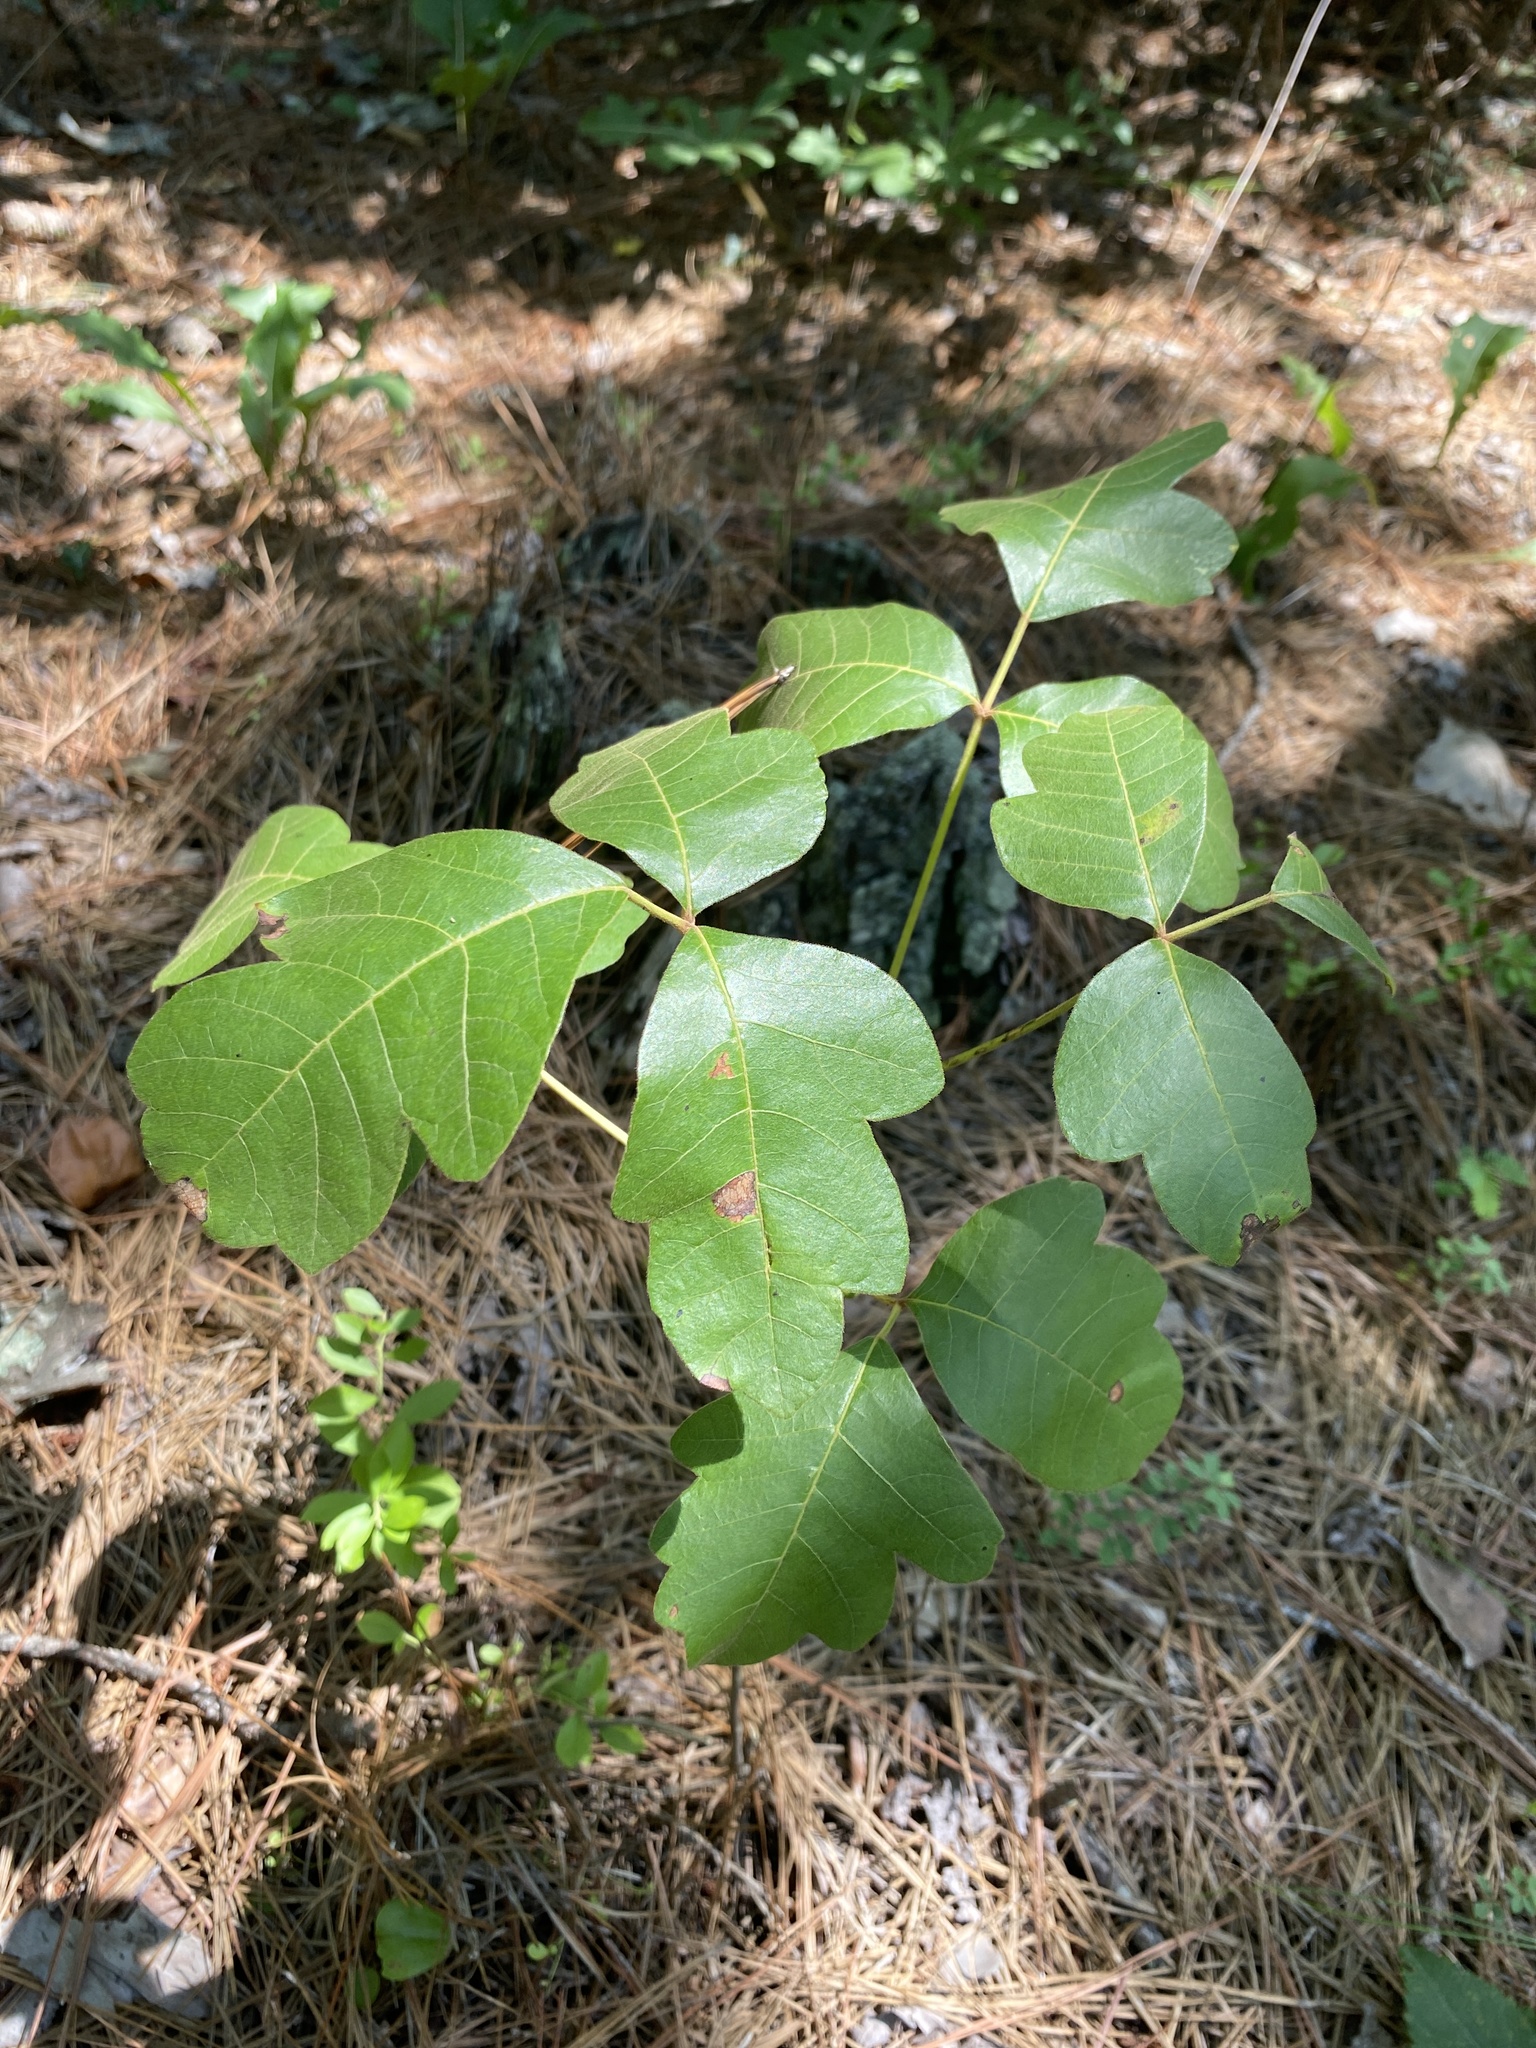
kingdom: Plantae
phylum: Tracheophyta
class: Magnoliopsida
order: Sapindales
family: Anacardiaceae
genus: Toxicodendron
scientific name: Toxicodendron pubescens
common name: Eastern poison-oak
